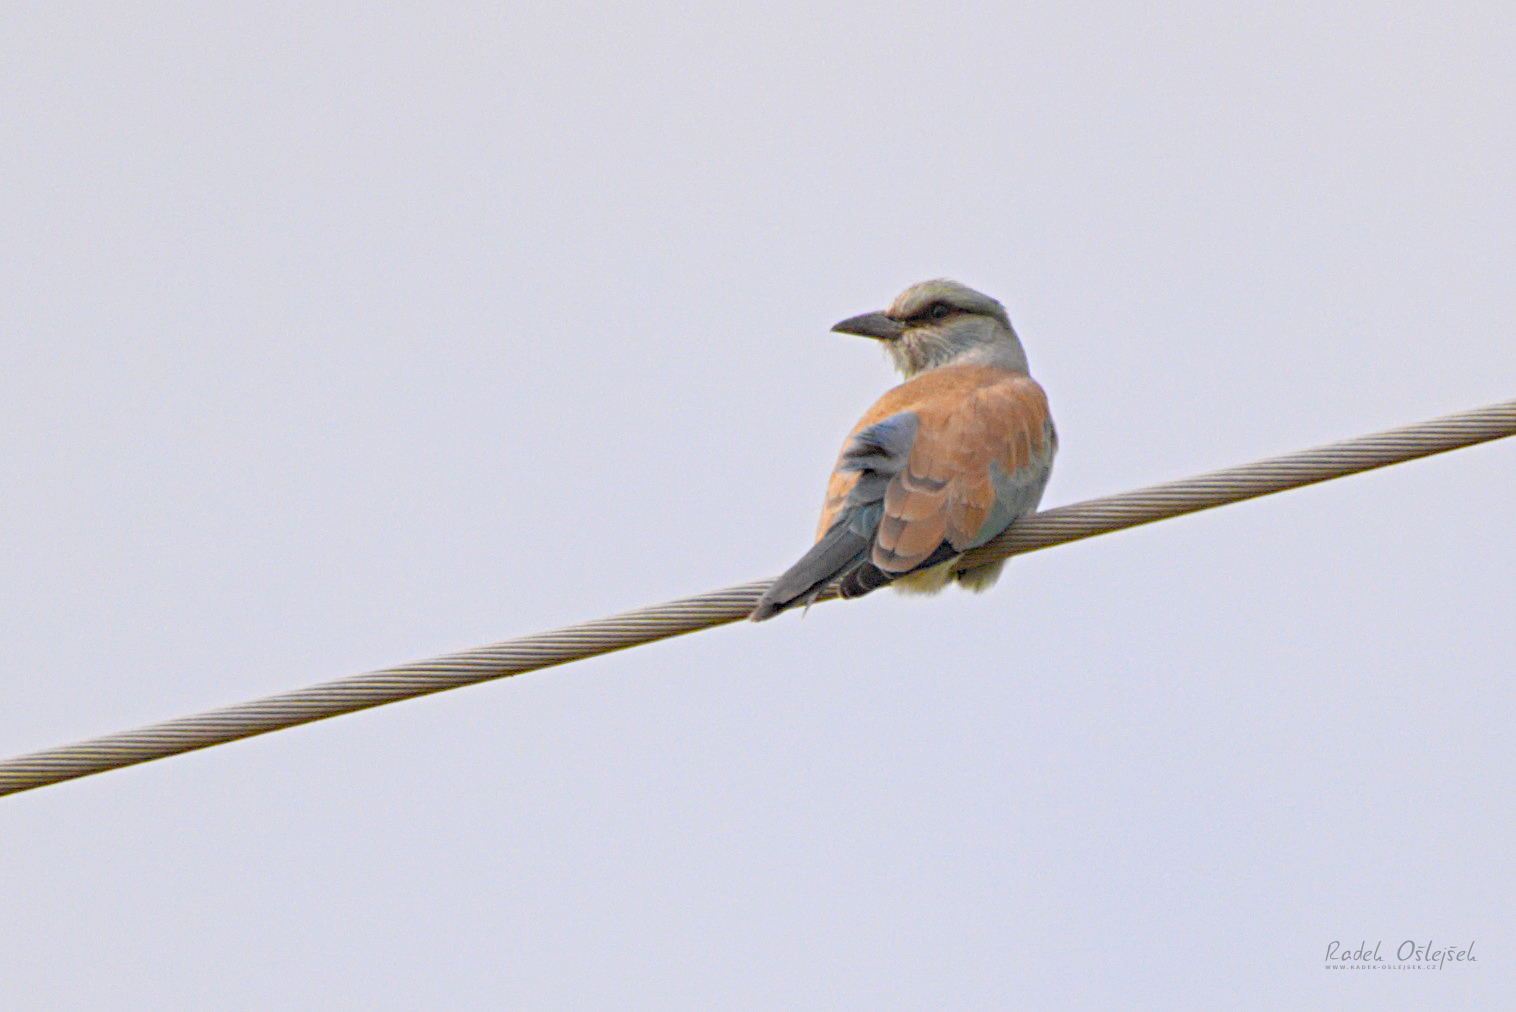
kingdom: Animalia
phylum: Chordata
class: Aves
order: Coraciiformes
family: Coraciidae
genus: Coracias
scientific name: Coracias garrulus
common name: European roller
